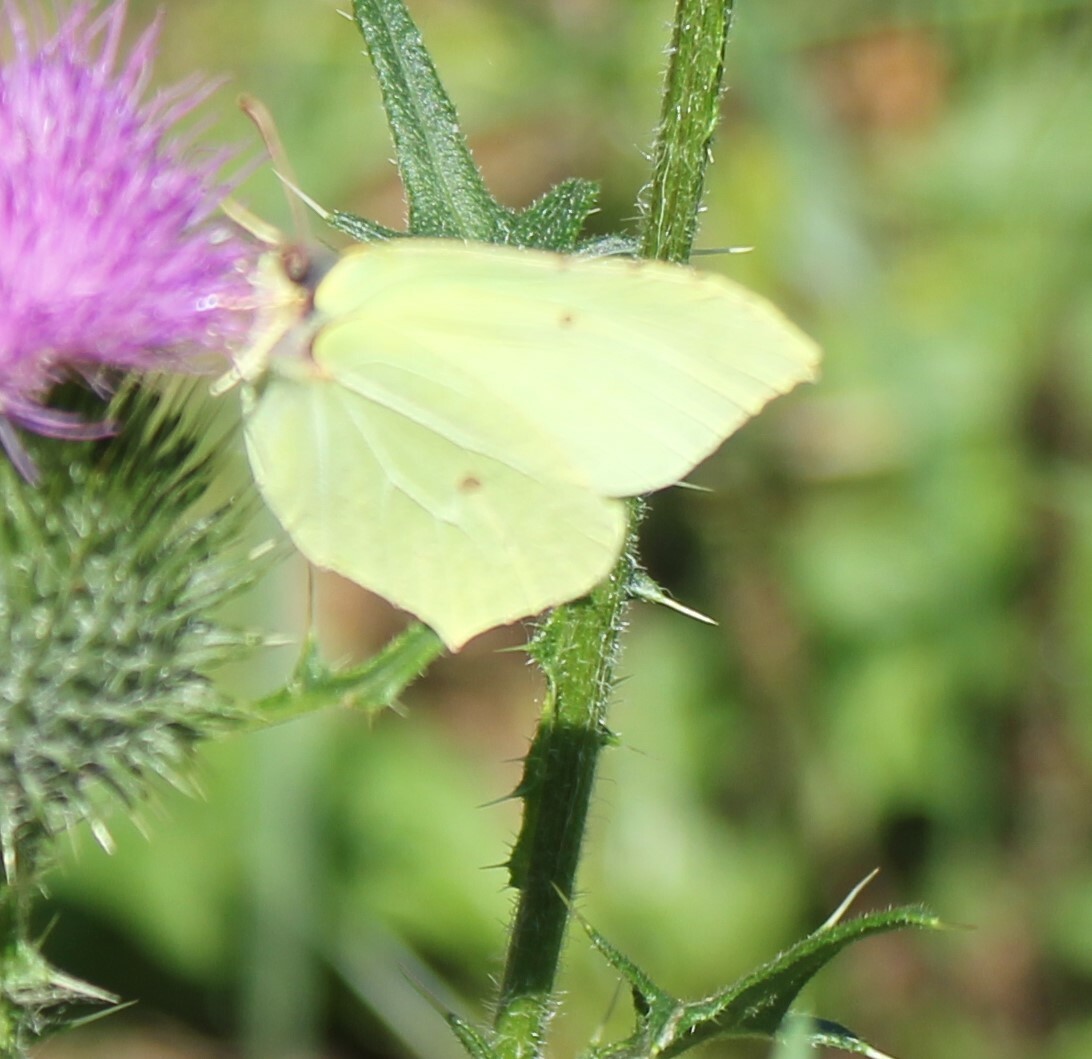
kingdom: Animalia
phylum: Arthropoda
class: Insecta
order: Lepidoptera
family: Pieridae
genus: Gonepteryx
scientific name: Gonepteryx rhamni
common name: Brimstone
